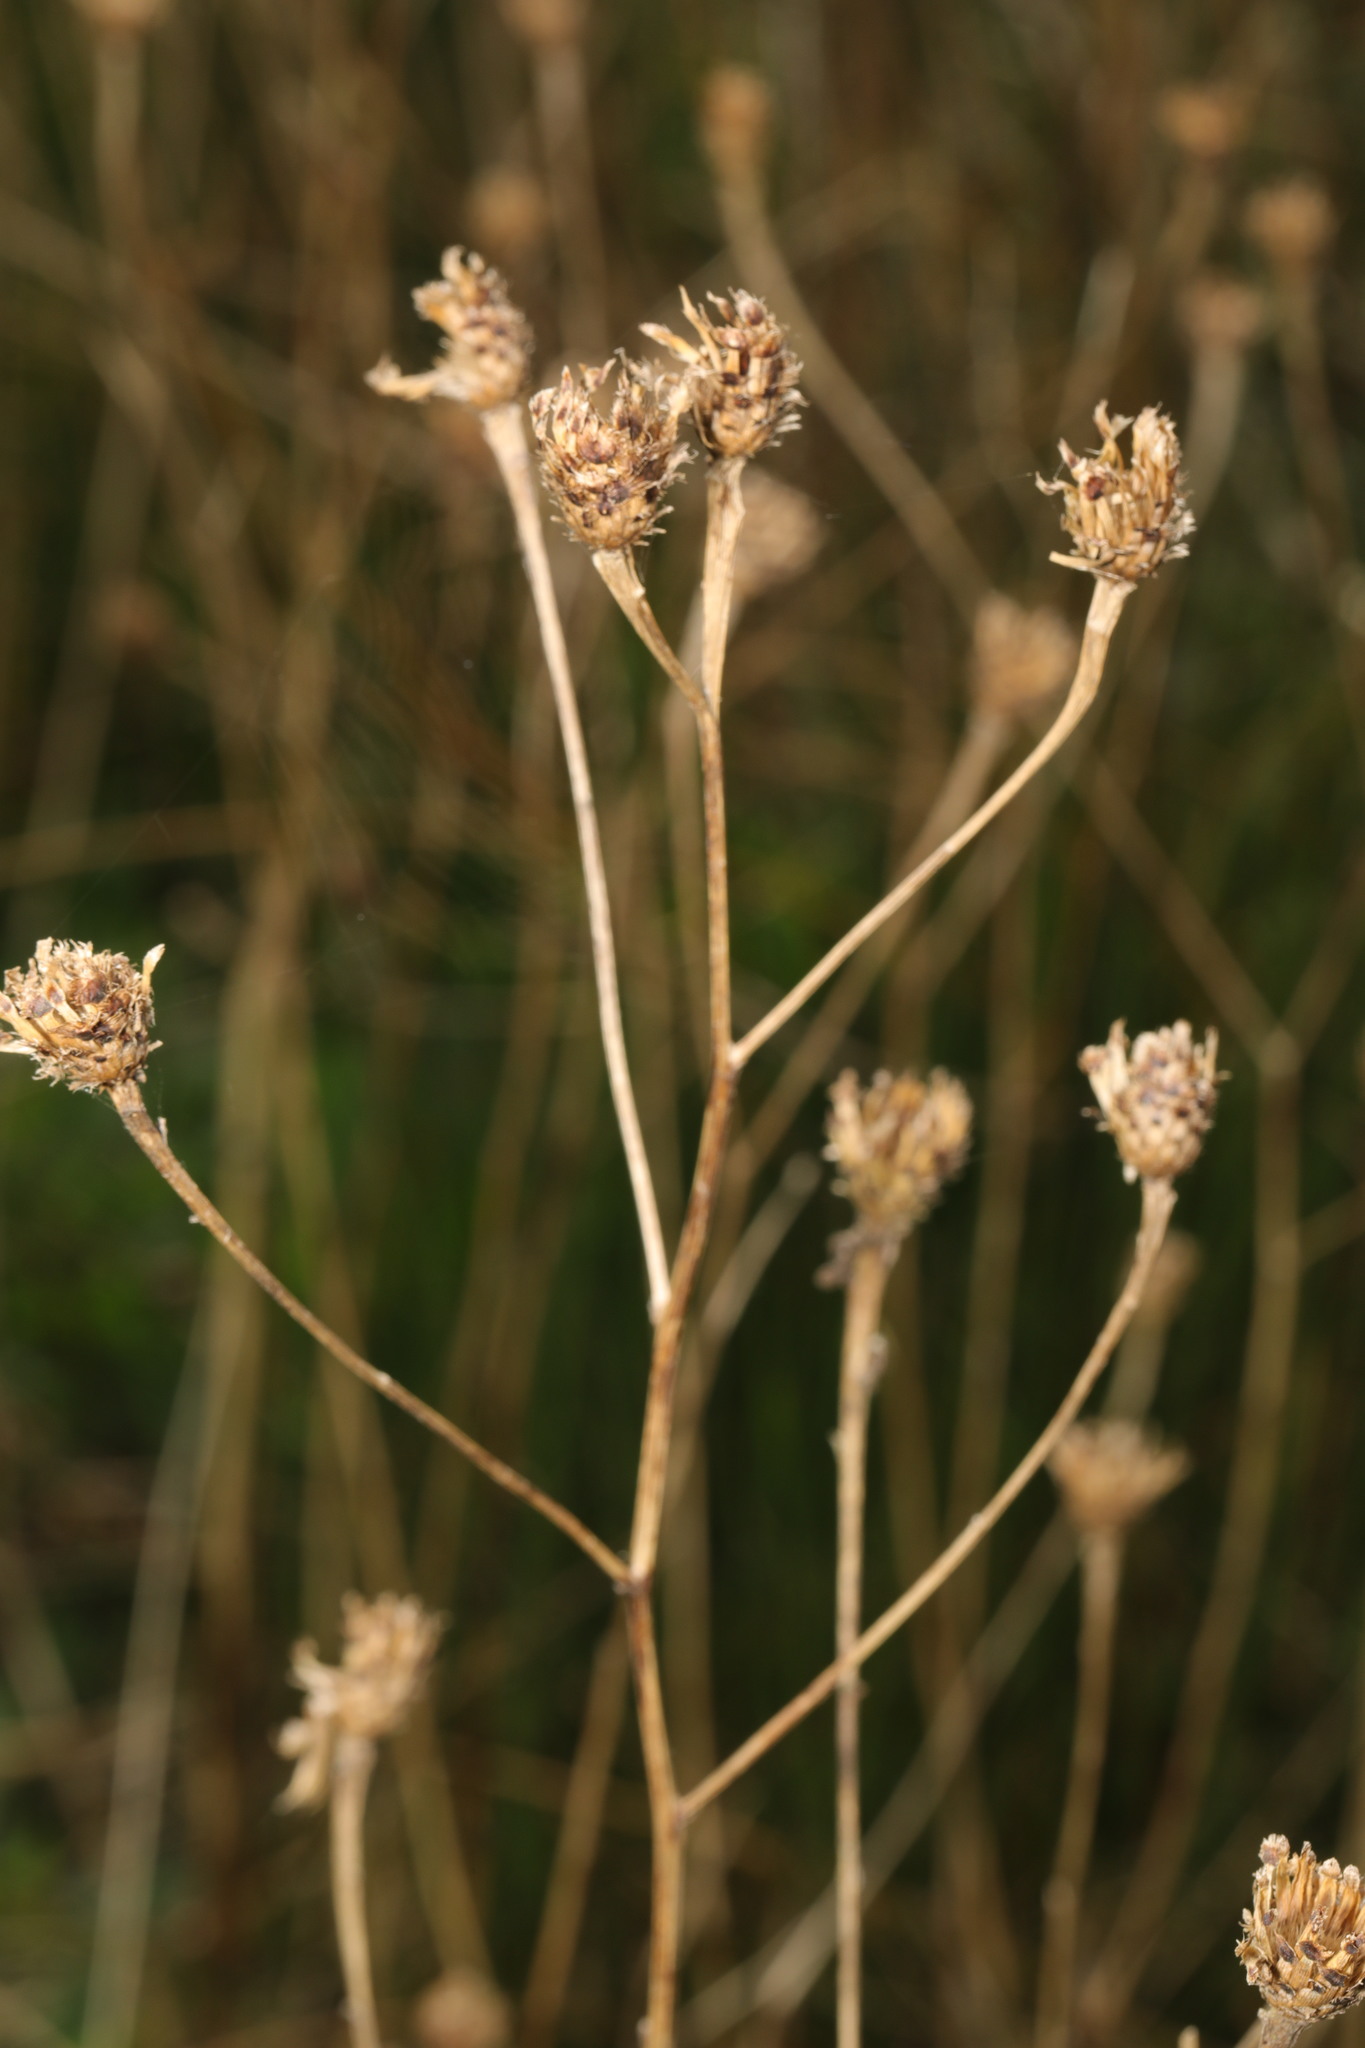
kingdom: Plantae
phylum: Tracheophyta
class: Magnoliopsida
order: Asterales
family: Asteraceae
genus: Centaurea
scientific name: Centaurea nigra
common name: Lesser knapweed
